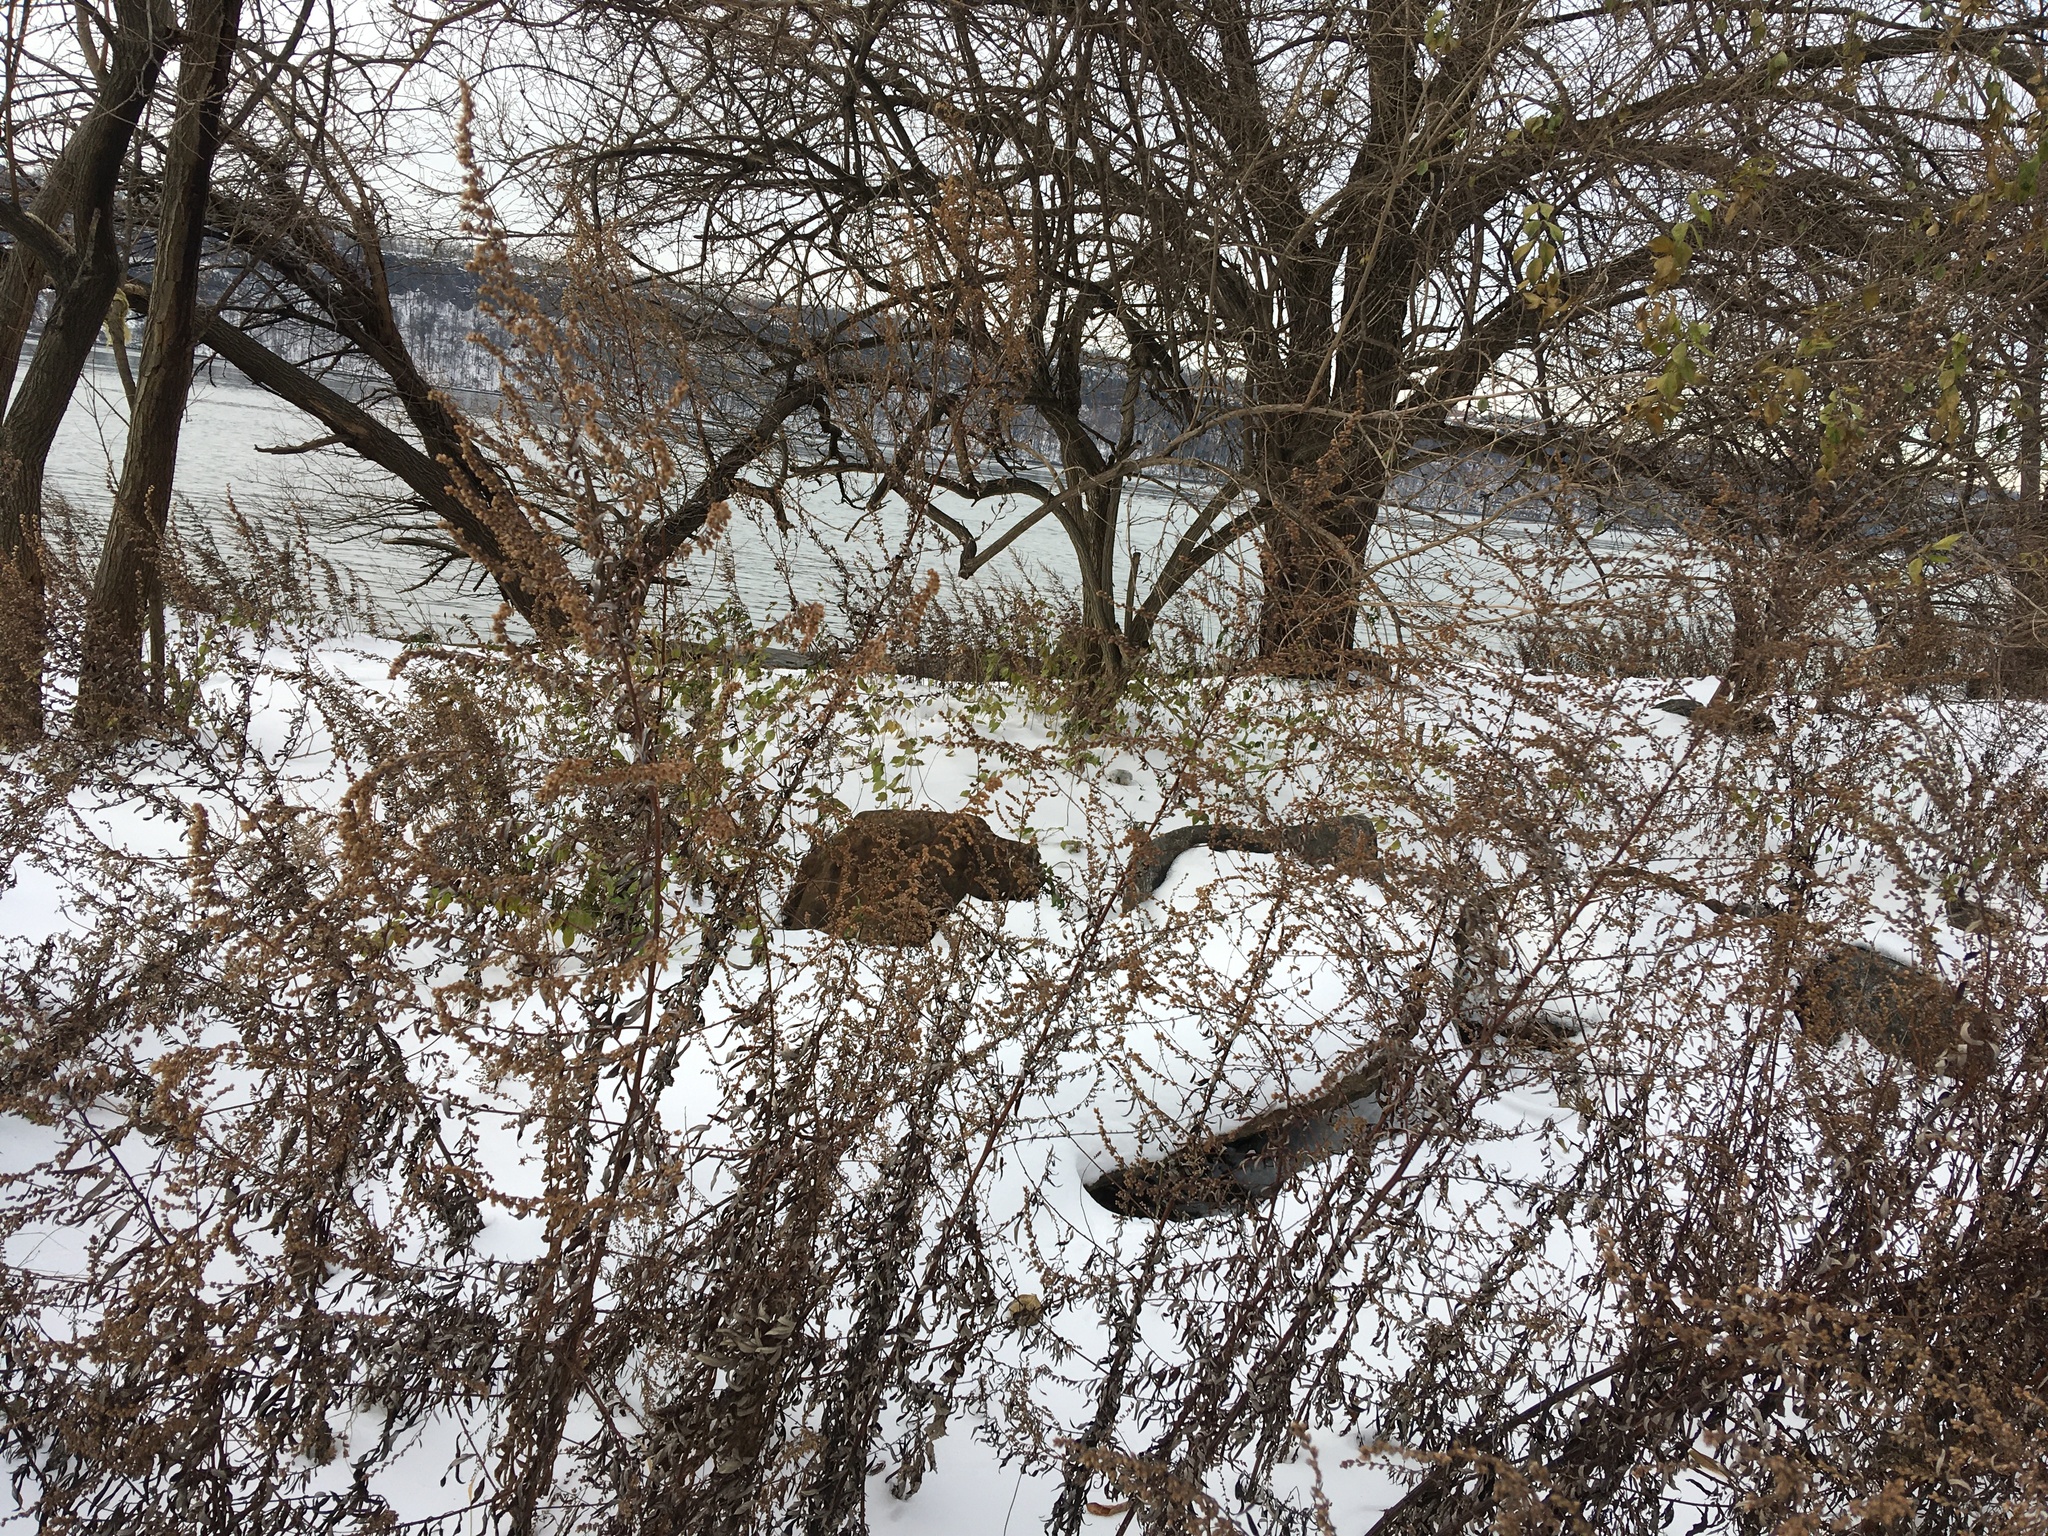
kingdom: Plantae
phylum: Tracheophyta
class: Magnoliopsida
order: Asterales
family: Asteraceae
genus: Artemisia
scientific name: Artemisia vulgaris
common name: Mugwort
